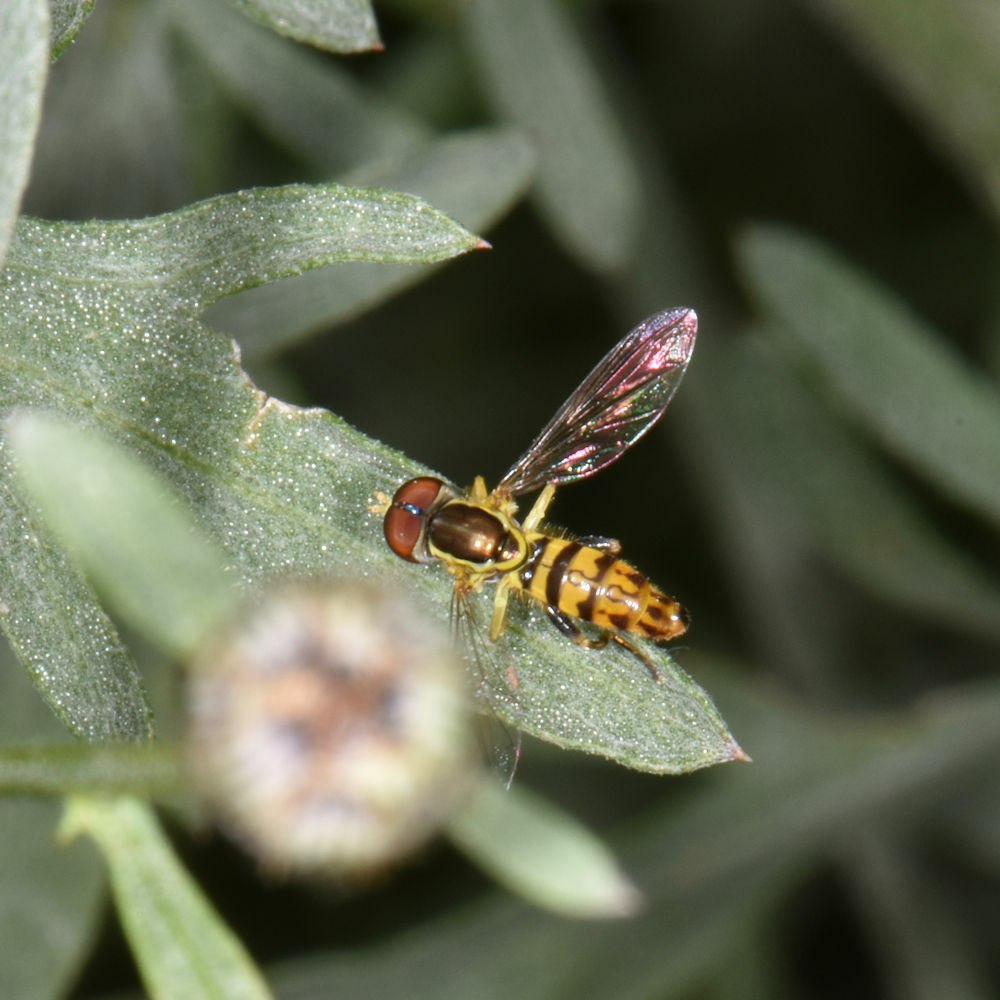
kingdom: Animalia
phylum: Arthropoda
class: Insecta
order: Diptera
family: Syrphidae
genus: Toxomerus
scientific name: Toxomerus geminatus
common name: Eastern calligrapher
